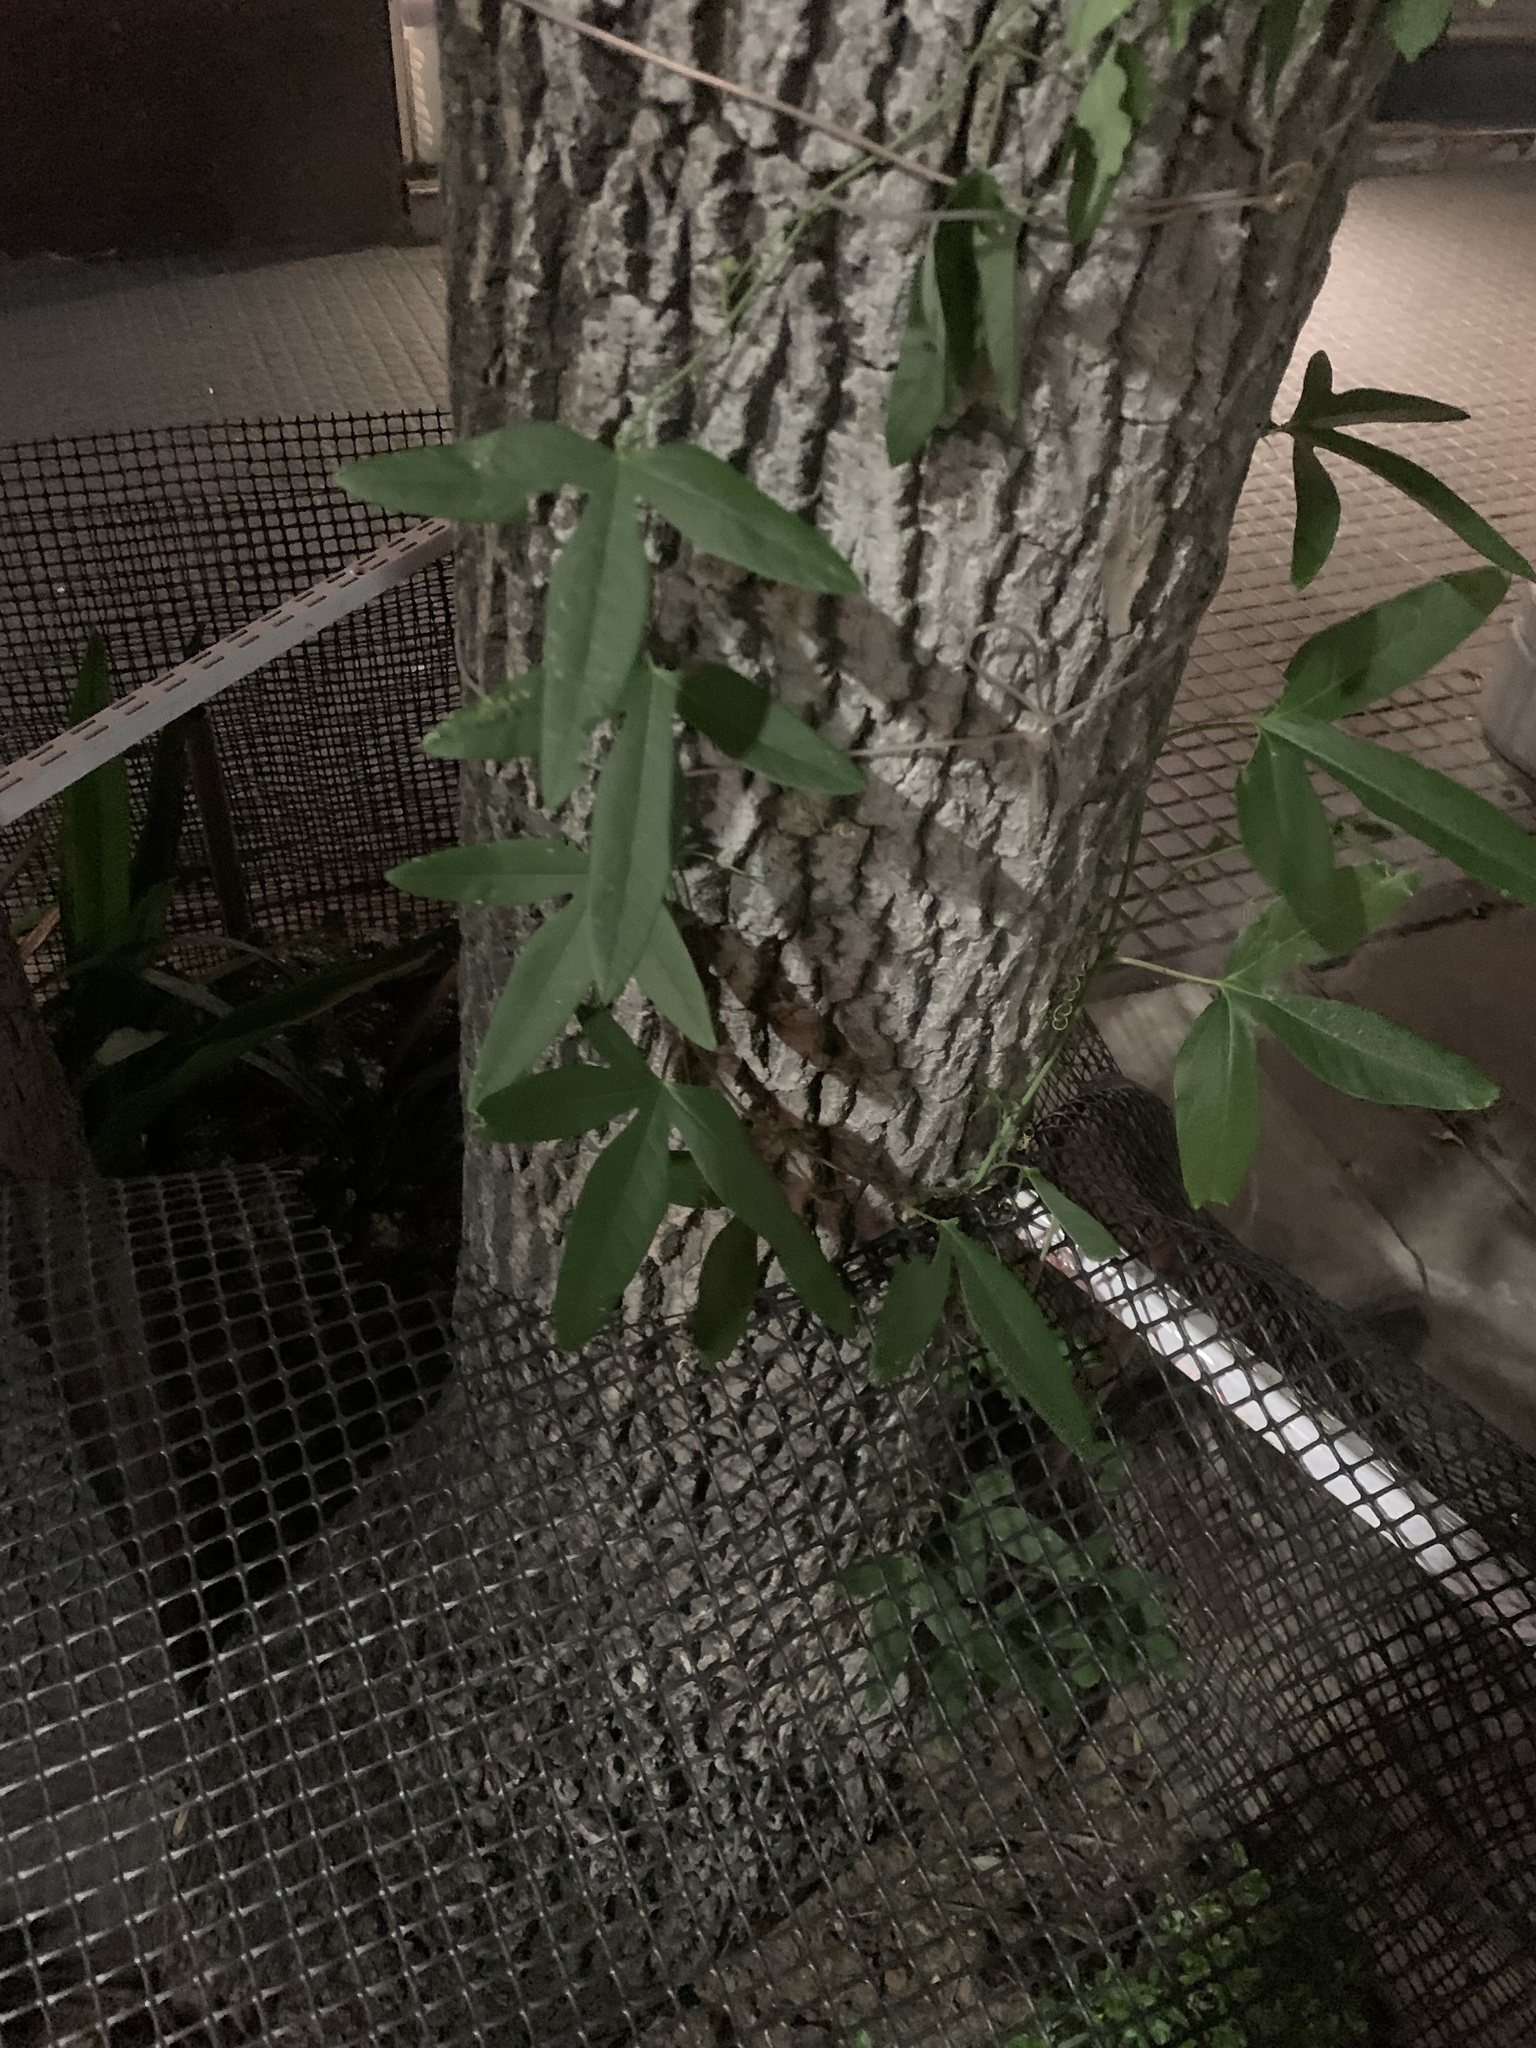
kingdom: Plantae
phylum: Tracheophyta
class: Magnoliopsida
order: Malpighiales
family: Passifloraceae
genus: Passiflora
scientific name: Passiflora caerulea
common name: Blue passionflower
